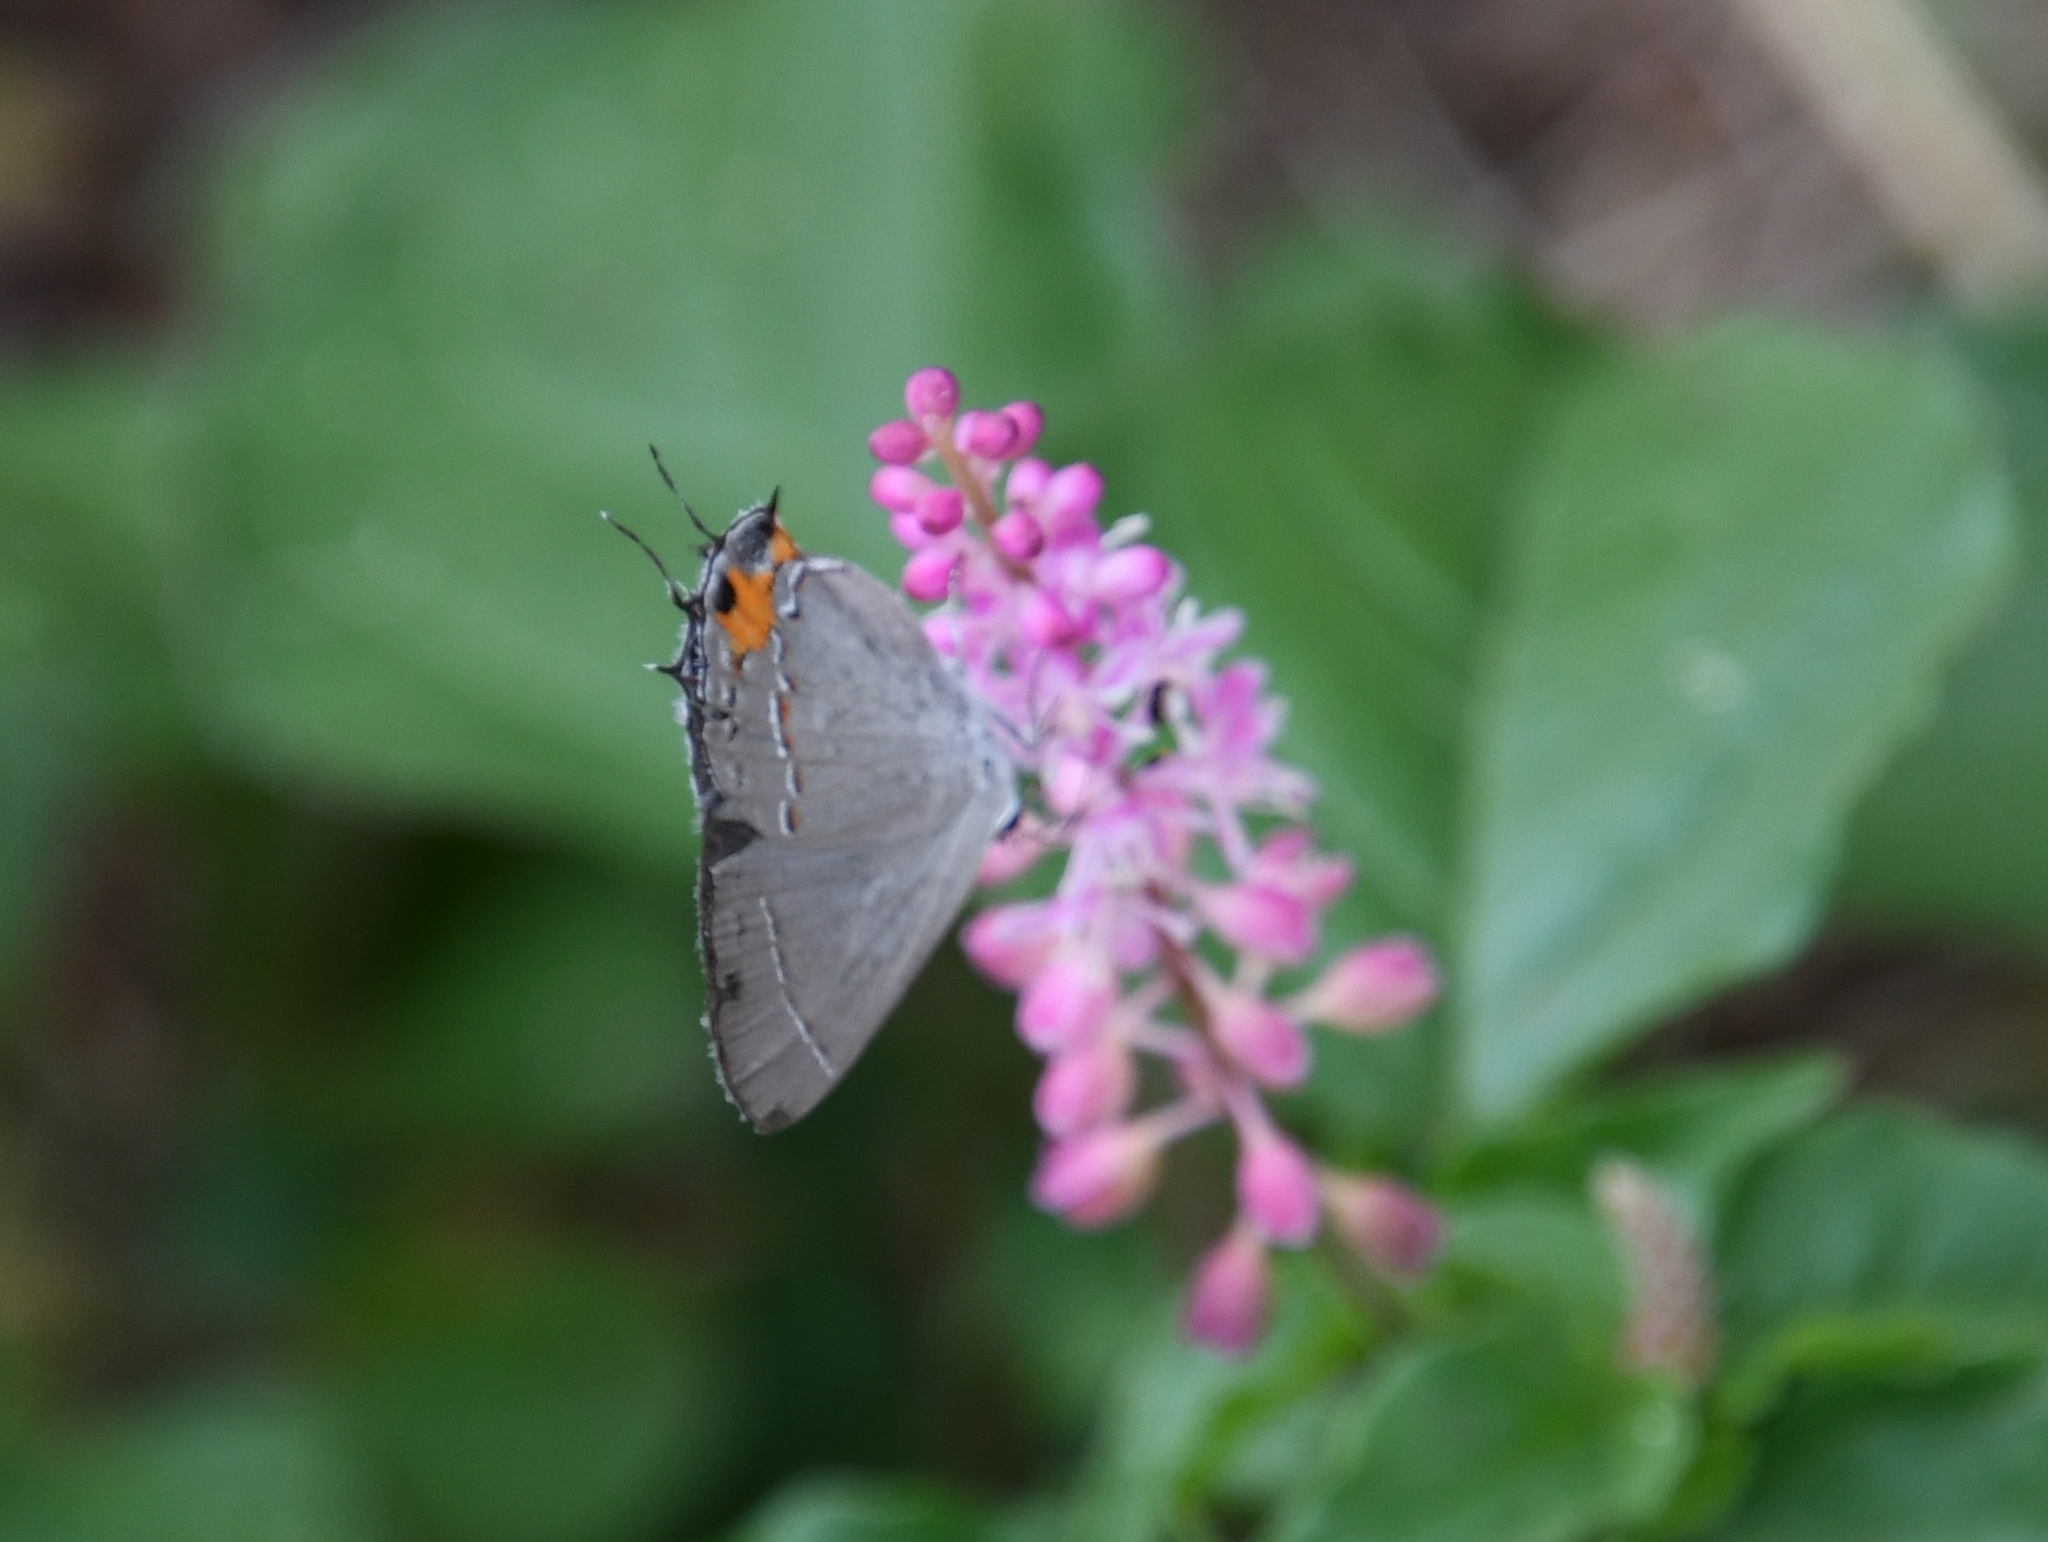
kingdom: Animalia
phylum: Arthropoda
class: Insecta
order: Lepidoptera
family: Lycaenidae
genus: Strymon
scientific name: Strymon melinus
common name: Gray hairstreak
